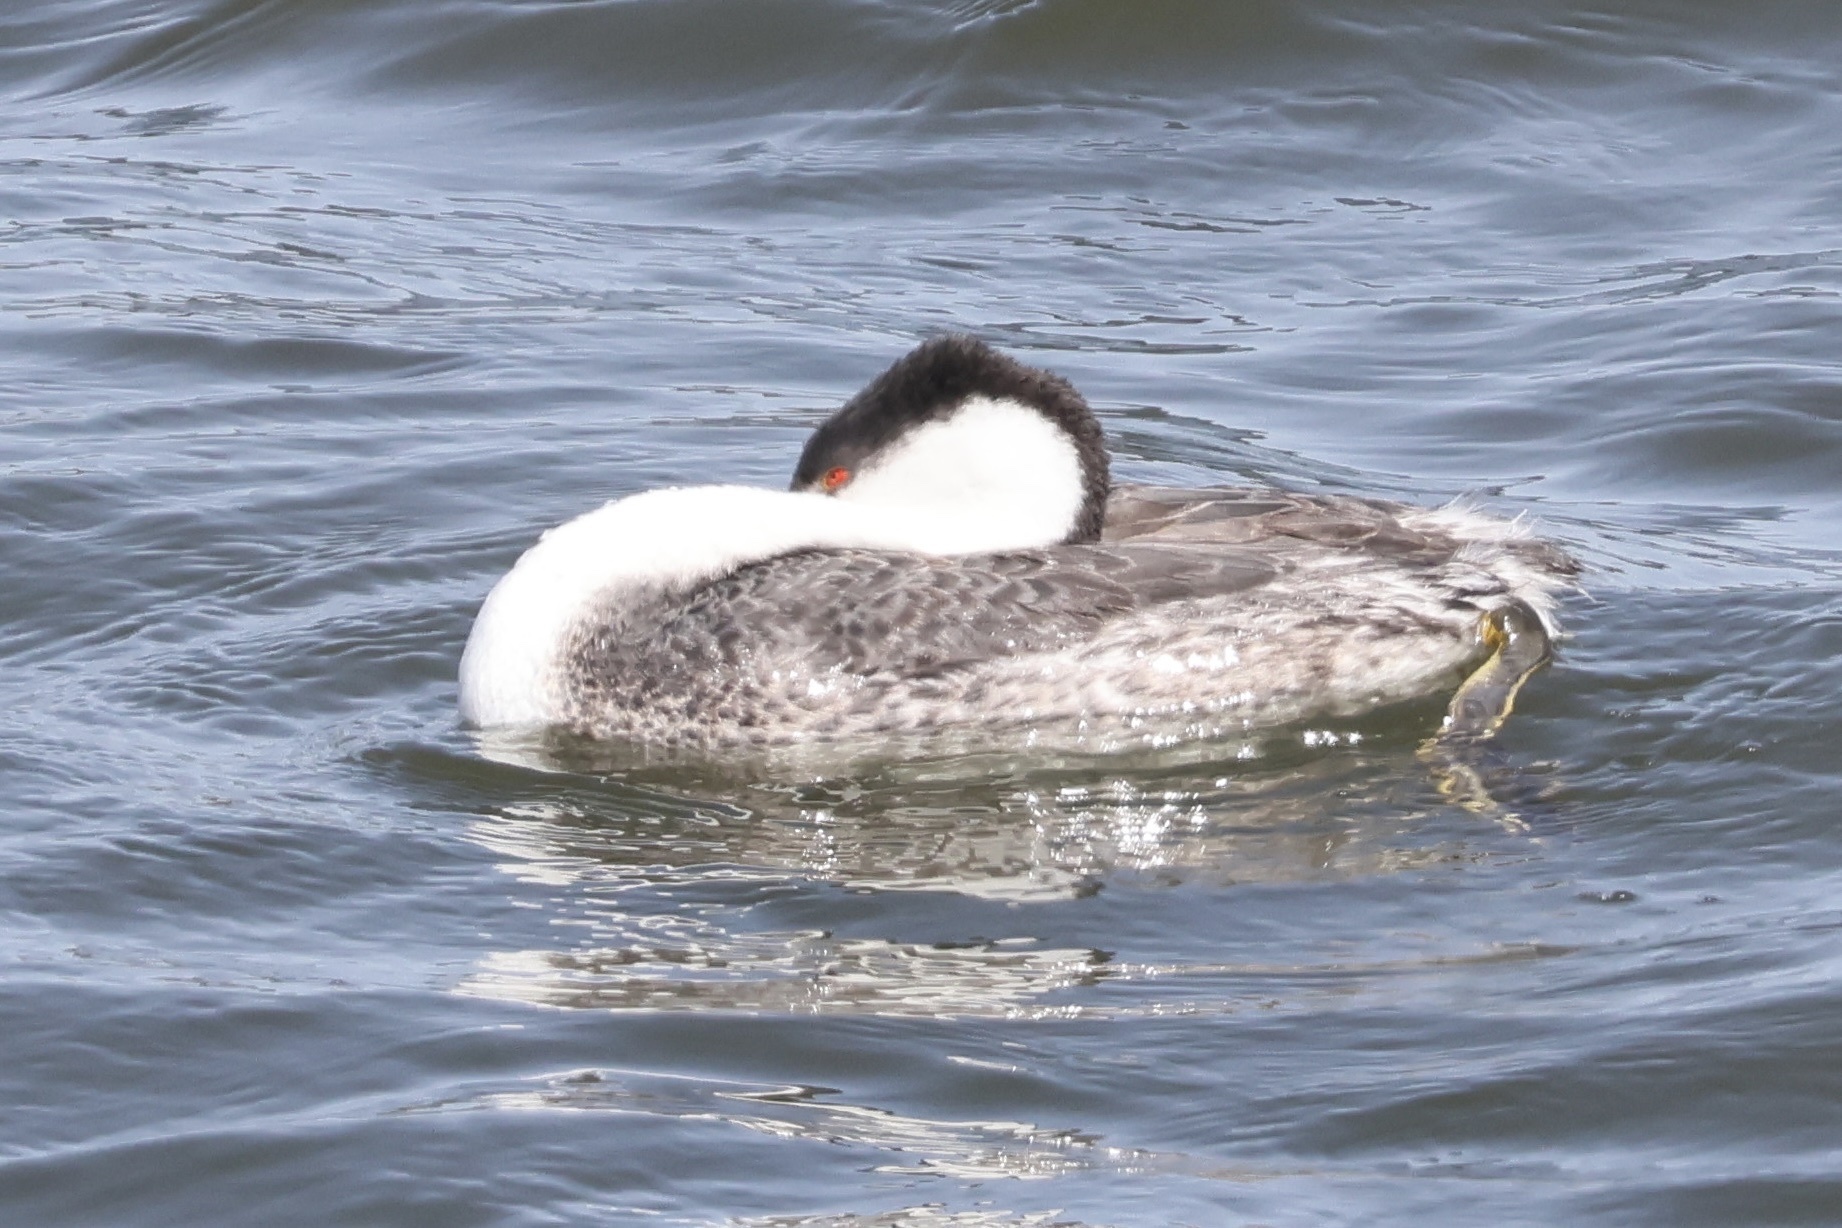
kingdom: Animalia
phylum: Chordata
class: Aves
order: Podicipediformes
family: Podicipedidae
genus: Aechmophorus
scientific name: Aechmophorus
